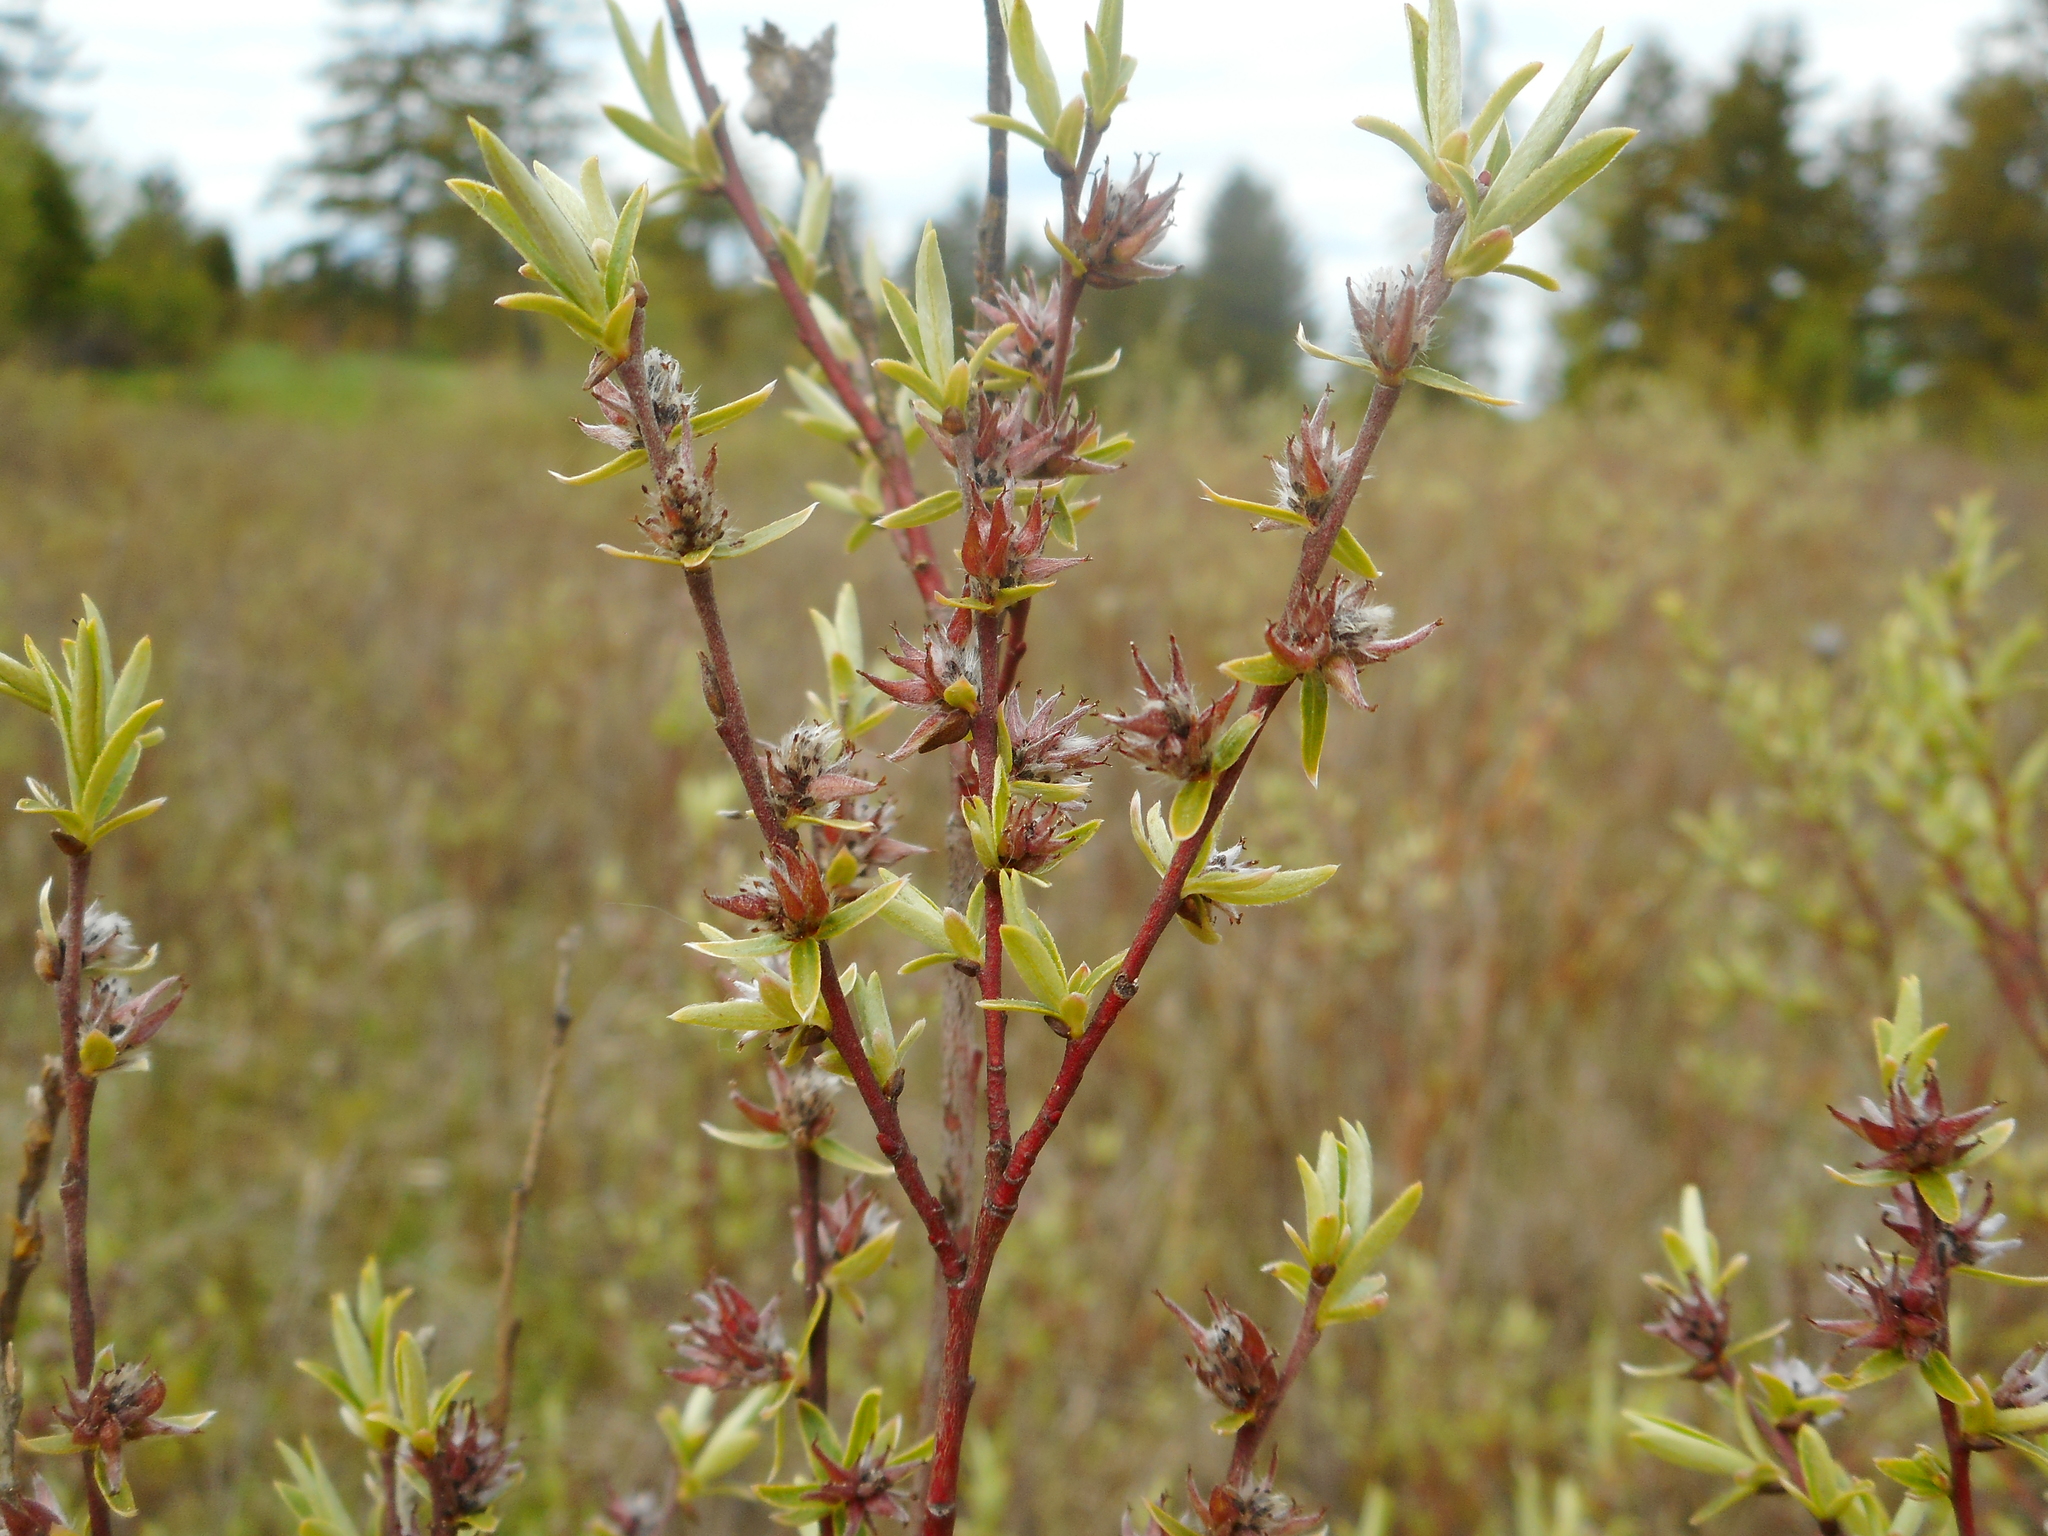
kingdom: Plantae
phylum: Tracheophyta
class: Magnoliopsida
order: Malpighiales
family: Salicaceae
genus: Salix
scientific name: Salix rosmarinifolia
